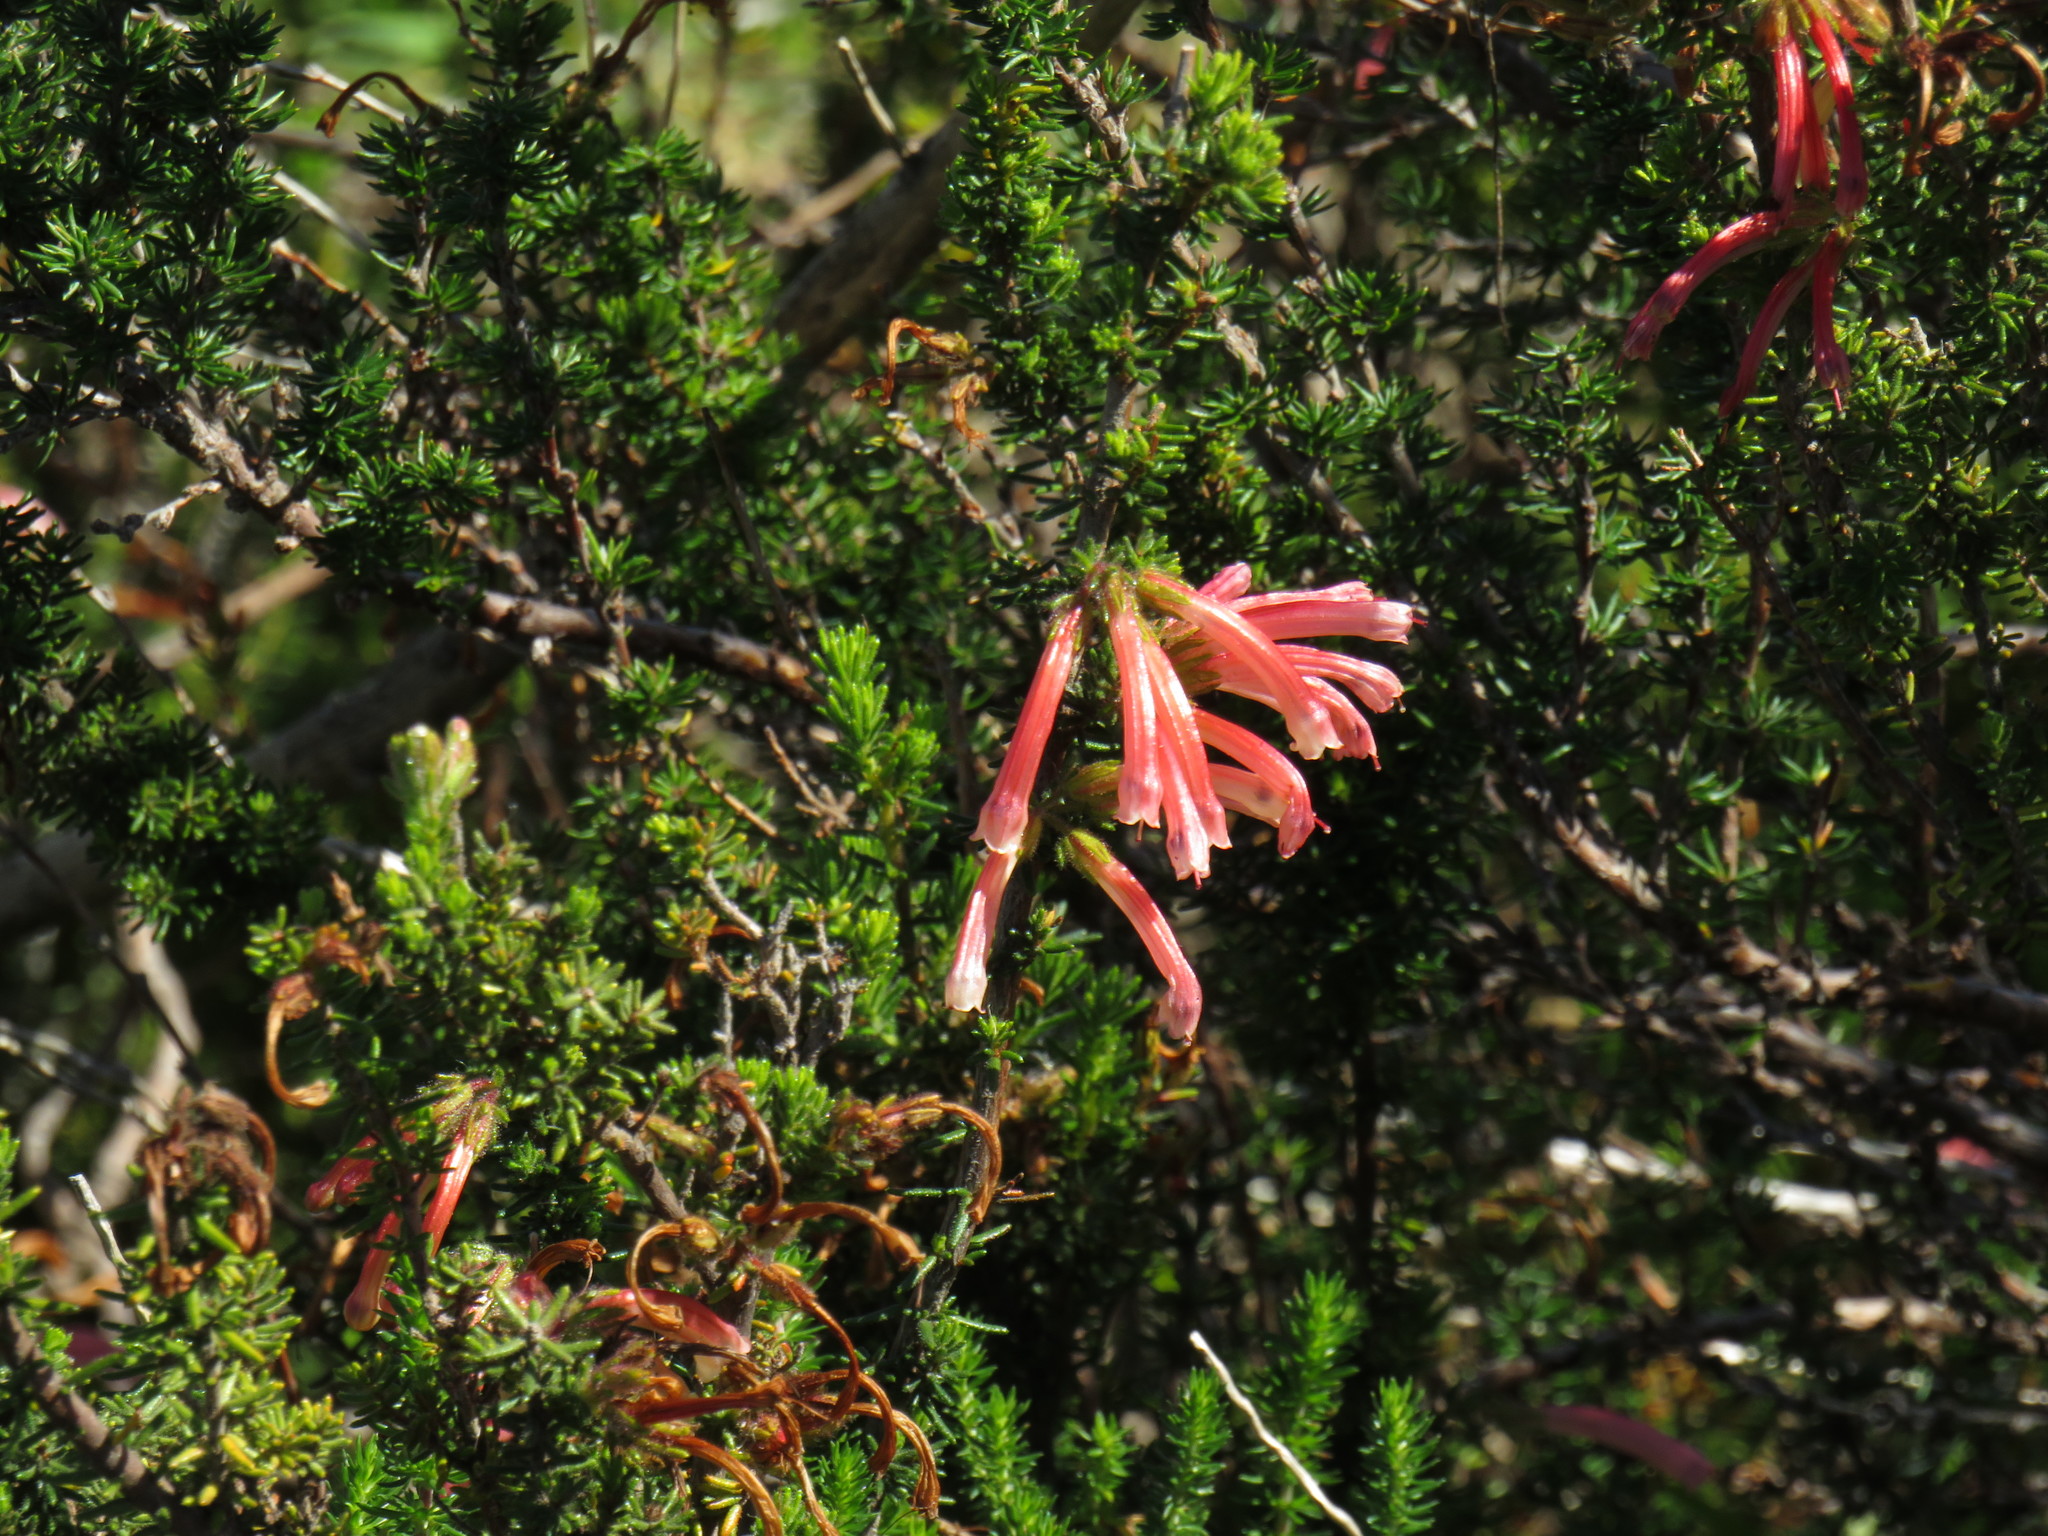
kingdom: Plantae
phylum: Tracheophyta
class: Magnoliopsida
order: Ericales
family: Ericaceae
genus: Erica
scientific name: Erica glandulosa
